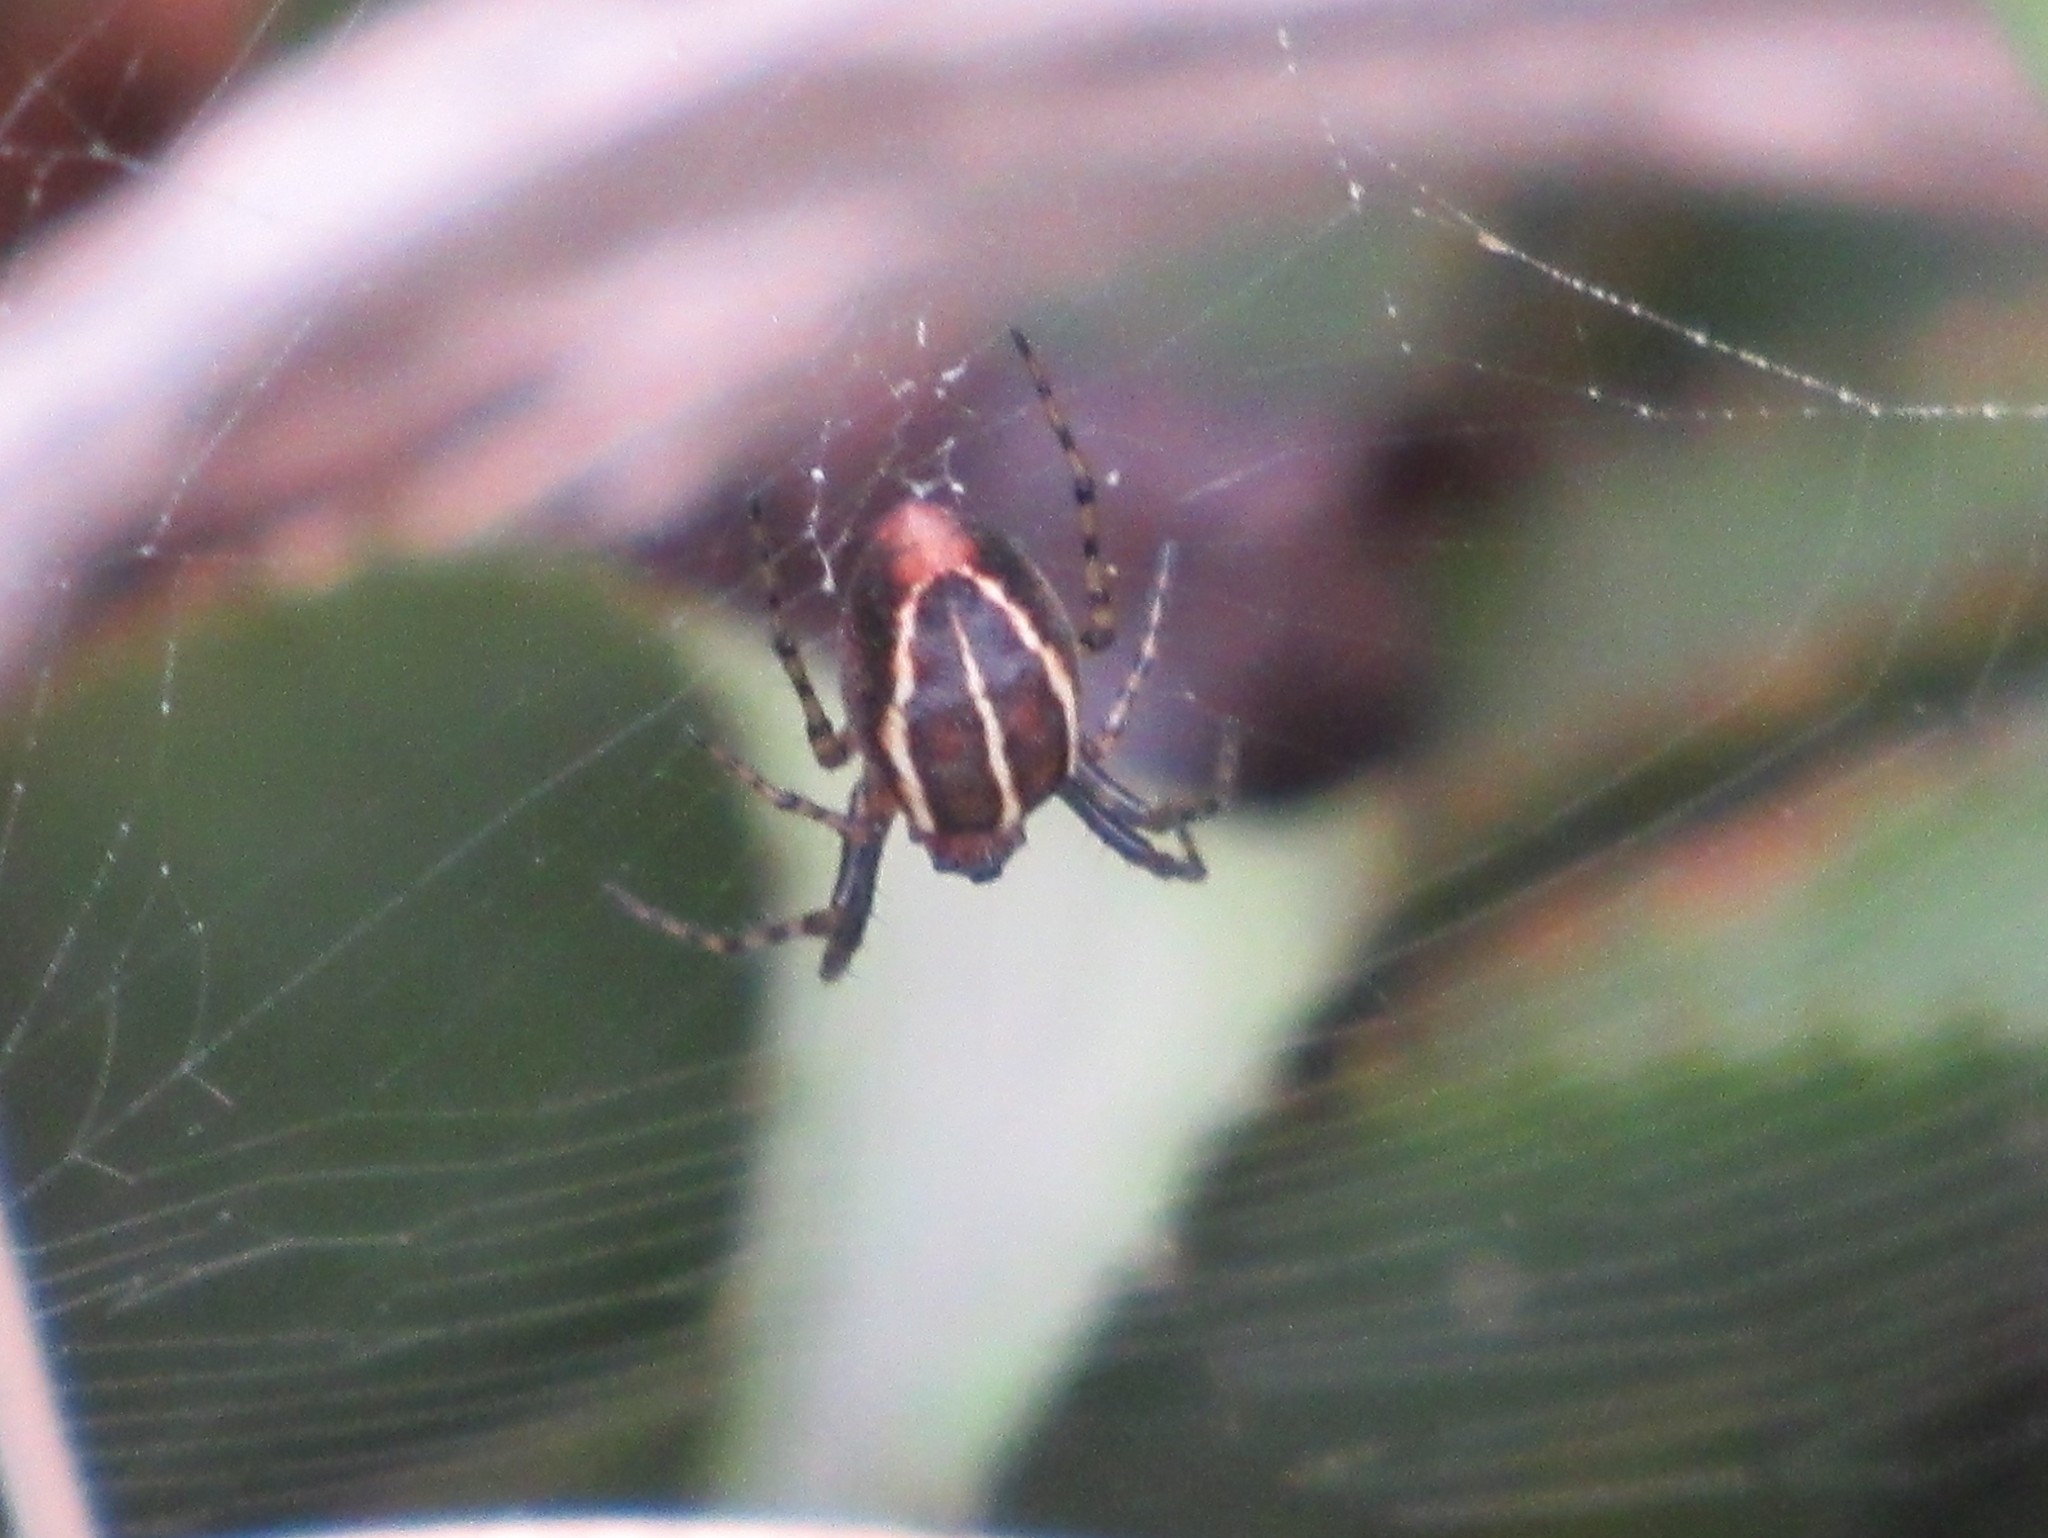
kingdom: Animalia
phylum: Arthropoda
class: Arachnida
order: Araneae
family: Araneidae
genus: Alpaida
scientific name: Alpaida leucogramma
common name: Orb weavers
